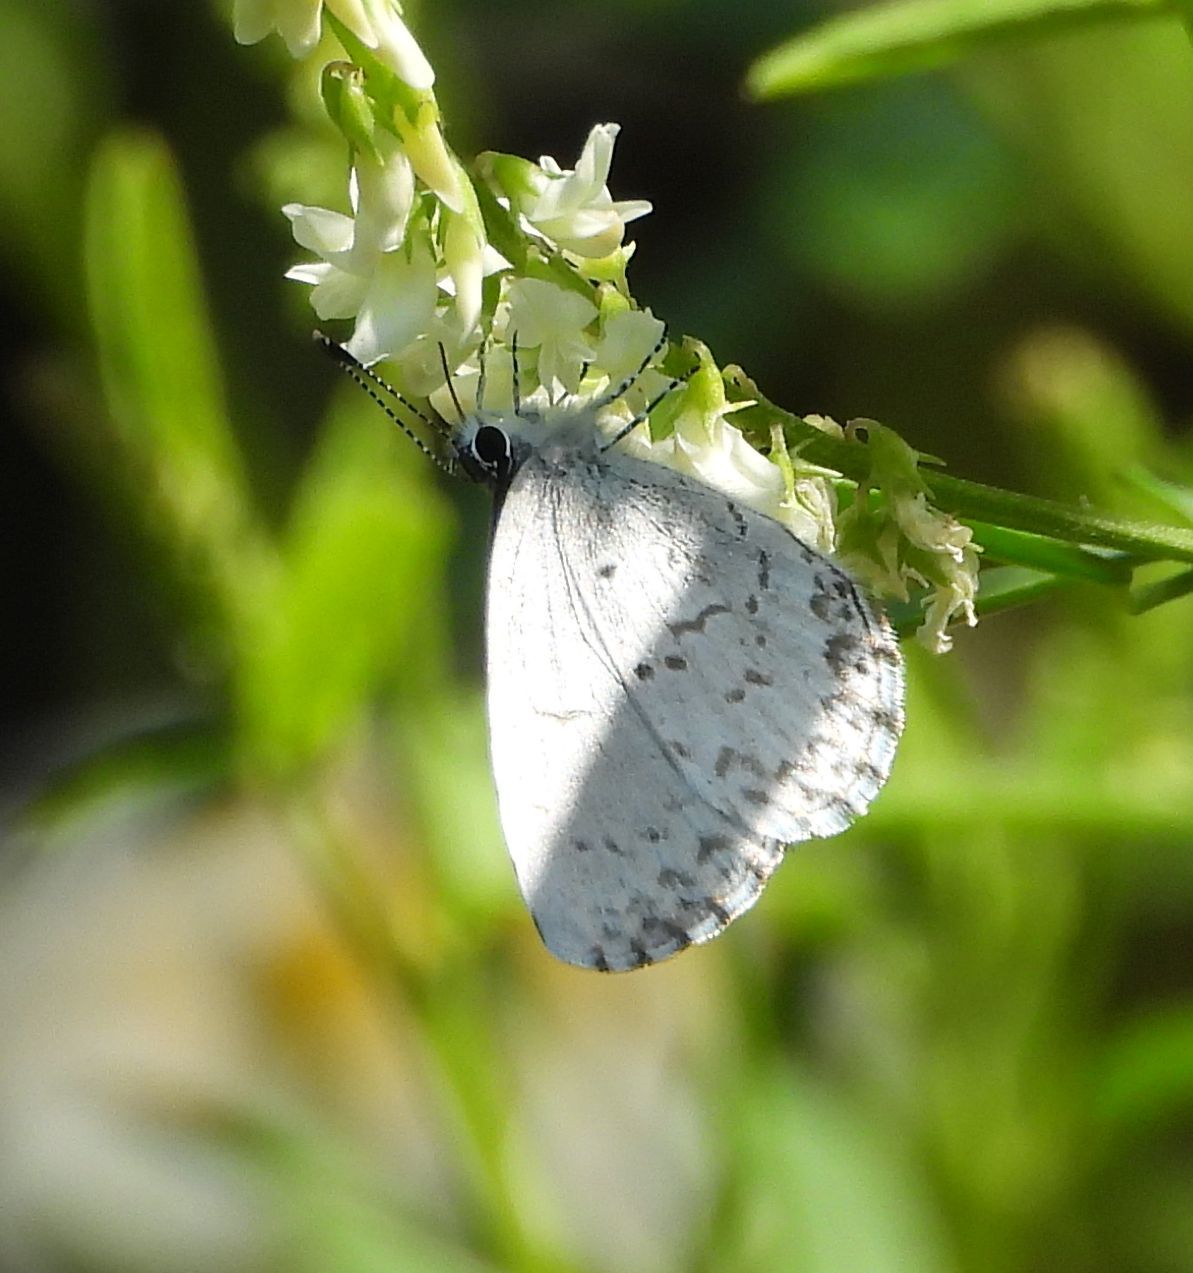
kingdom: Animalia
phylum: Arthropoda
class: Insecta
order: Lepidoptera
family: Lycaenidae
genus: Celastrina
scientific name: Celastrina lucia
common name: Lucia azure
